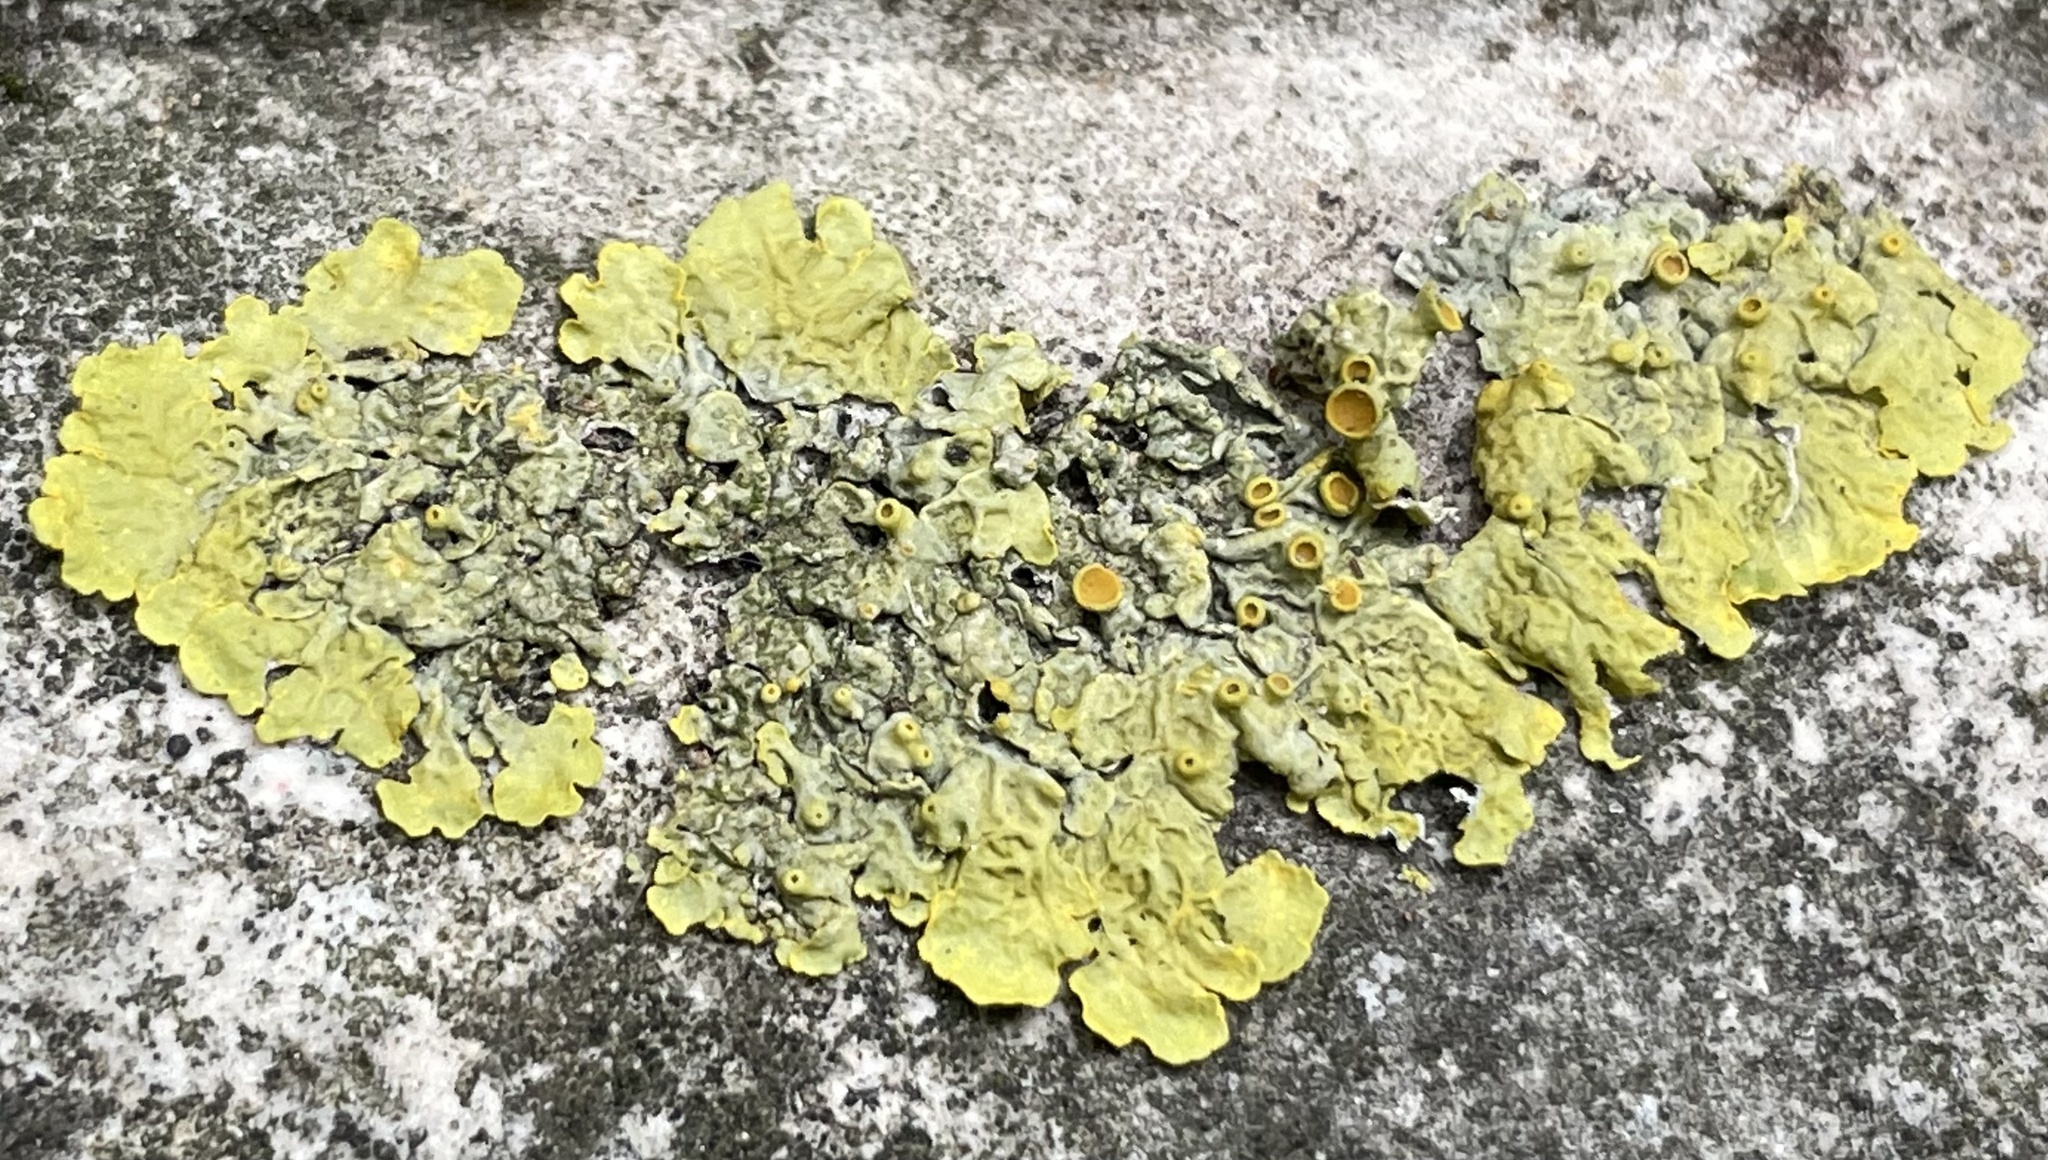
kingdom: Fungi
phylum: Ascomycota
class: Lecanoromycetes
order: Teloschistales
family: Teloschistaceae
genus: Xanthoria
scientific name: Xanthoria parietina
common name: Common orange lichen
